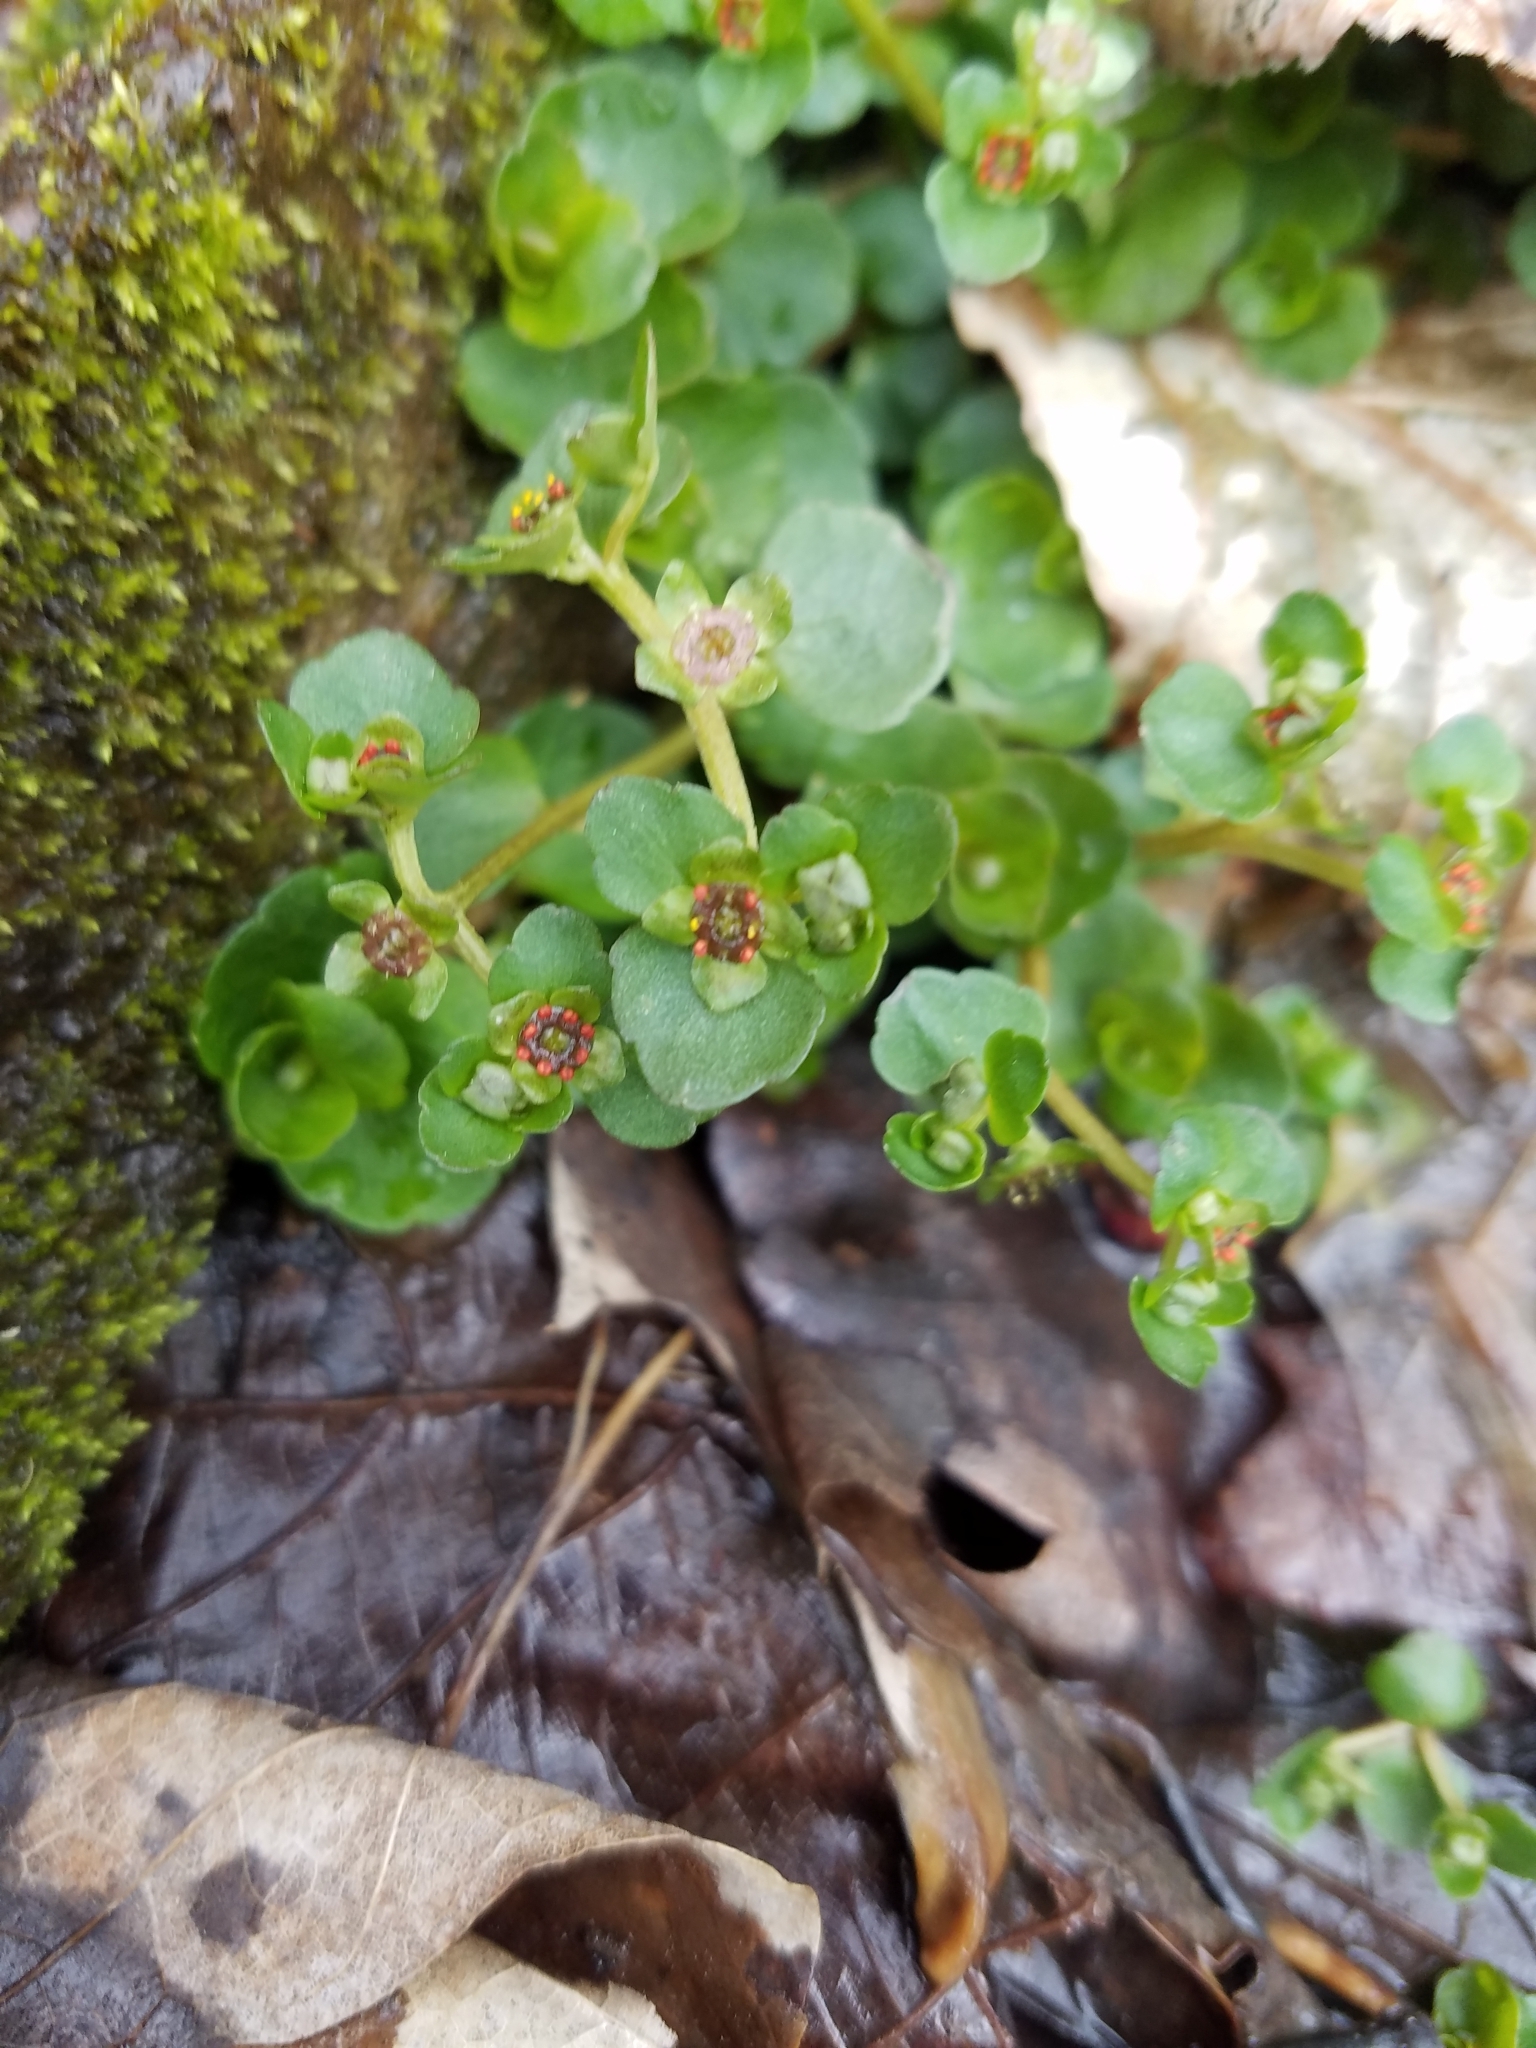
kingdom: Plantae
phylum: Tracheophyta
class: Magnoliopsida
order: Saxifragales
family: Saxifragaceae
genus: Chrysosplenium
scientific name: Chrysosplenium americanum
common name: American golden-saxifrage
